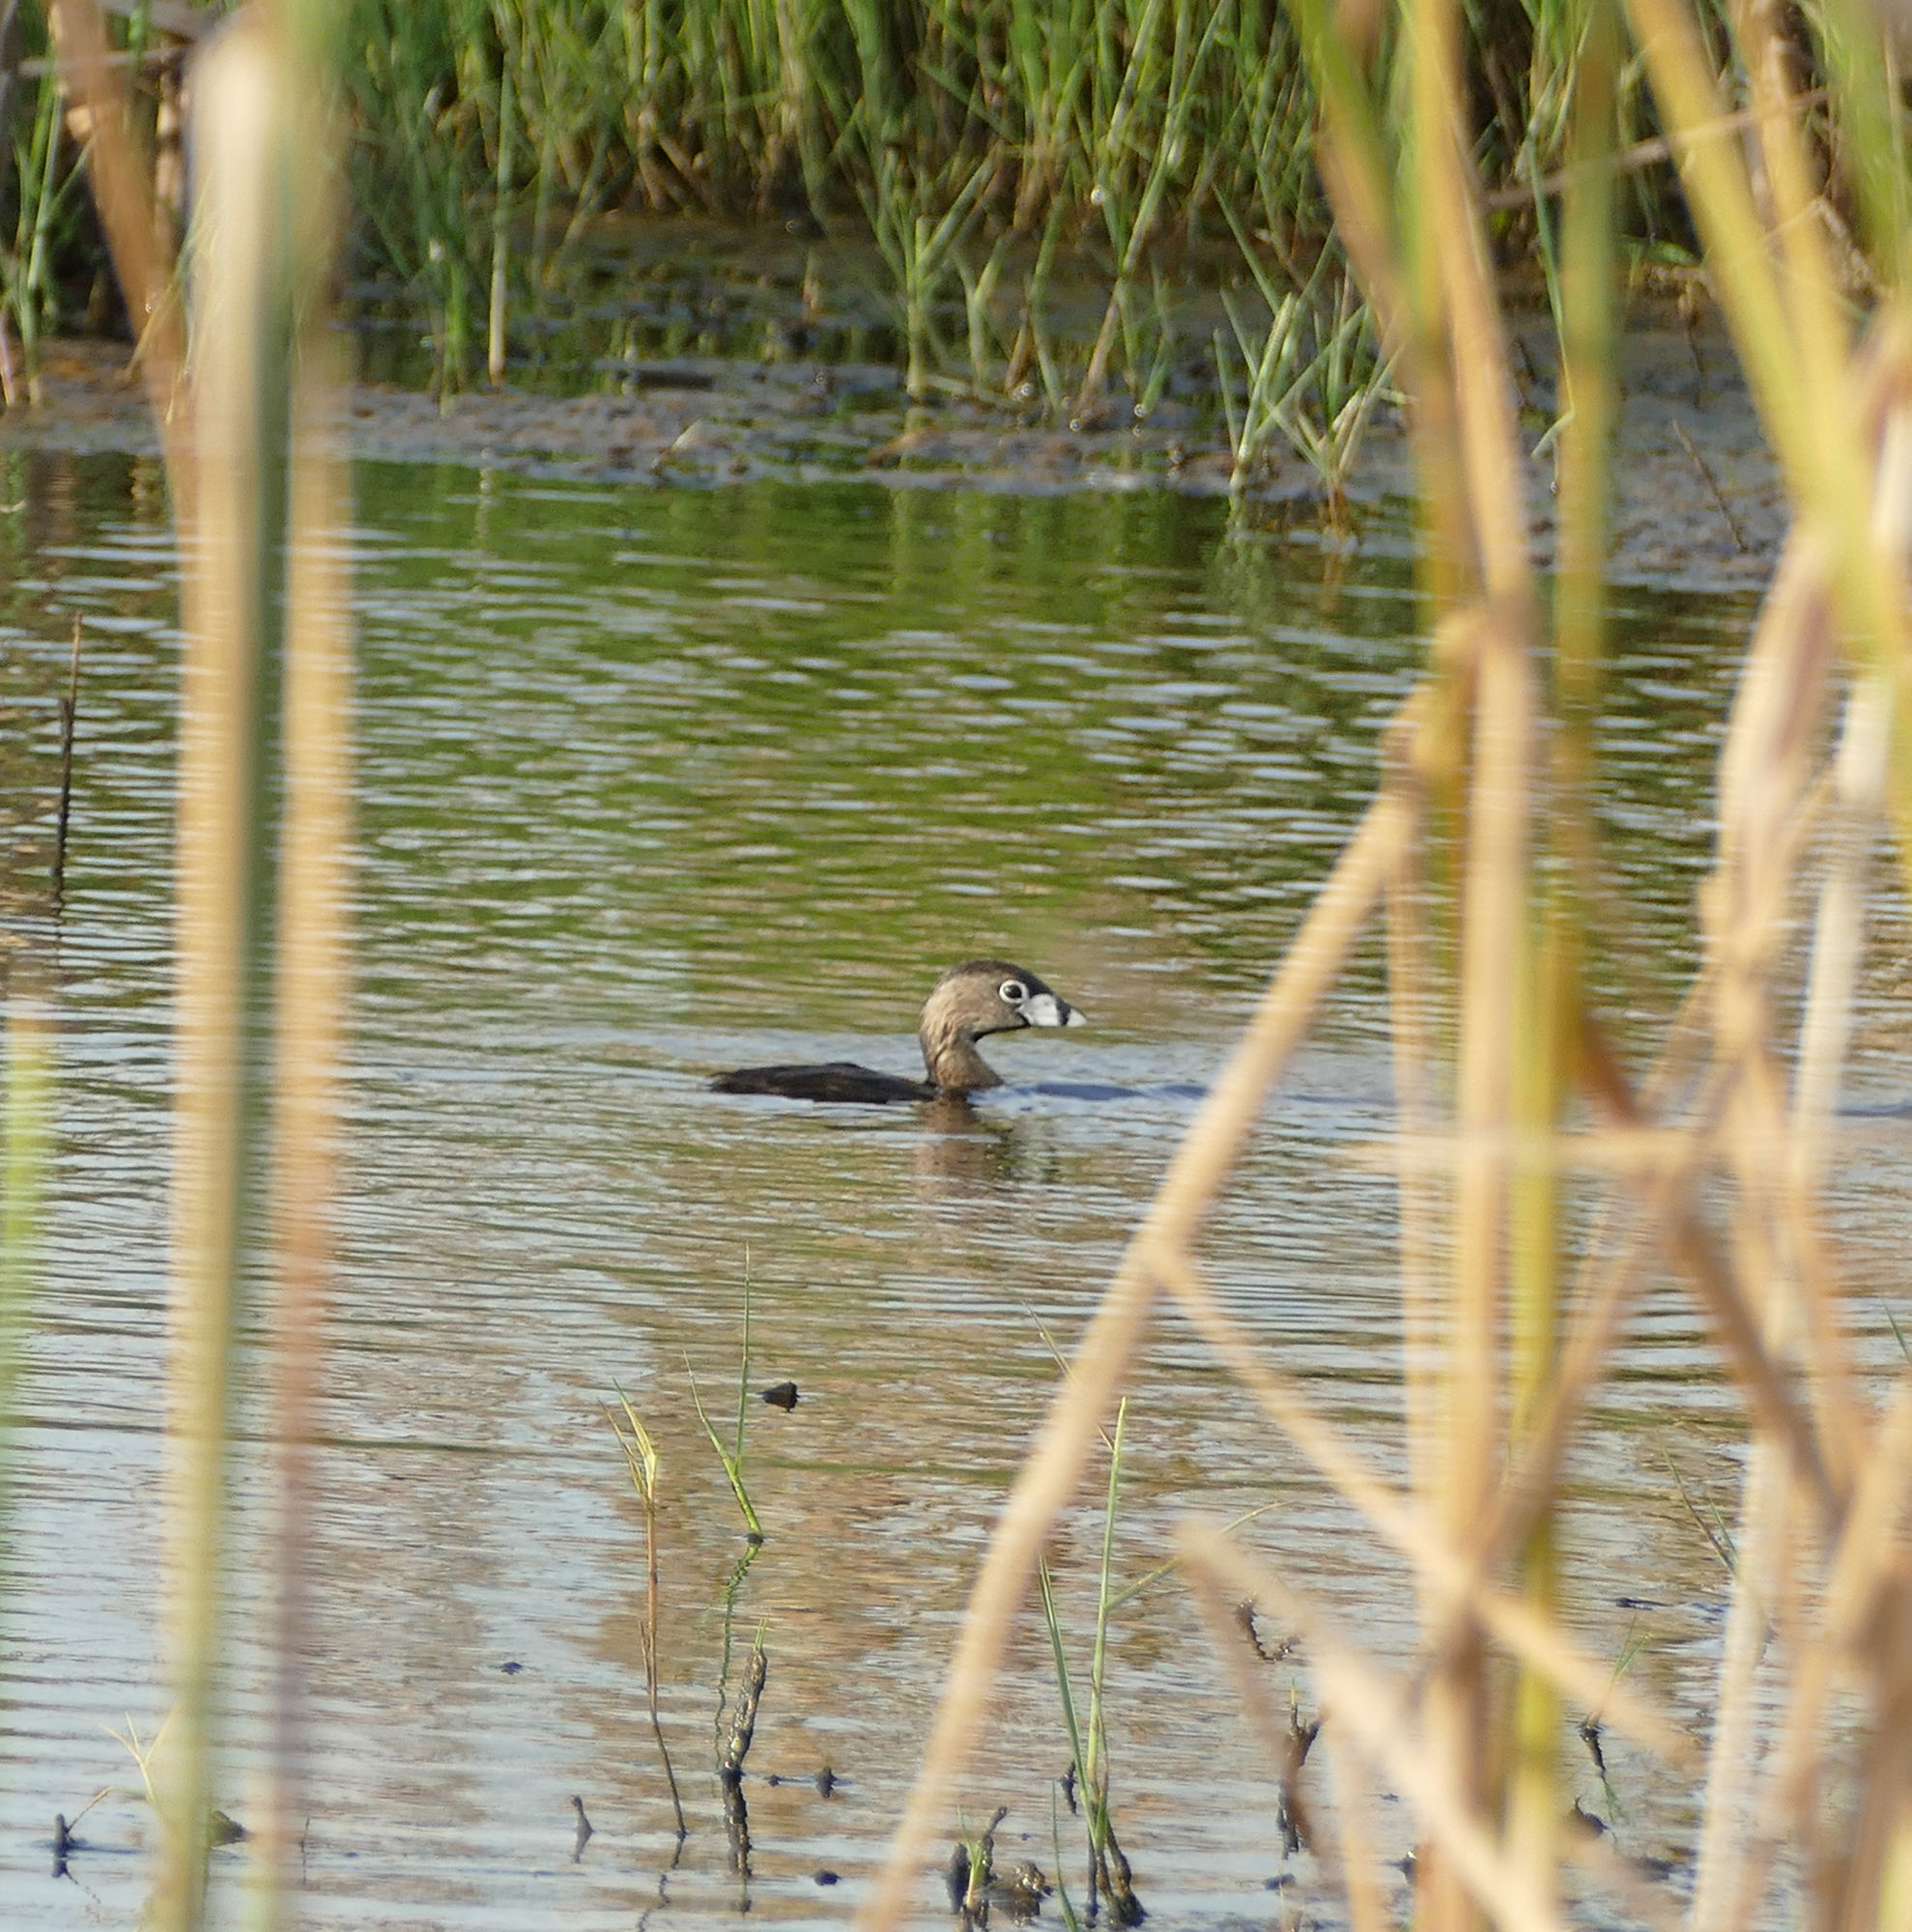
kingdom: Animalia
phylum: Chordata
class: Aves
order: Podicipediformes
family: Podicipedidae
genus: Podilymbus
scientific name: Podilymbus podiceps
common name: Pied-billed grebe
